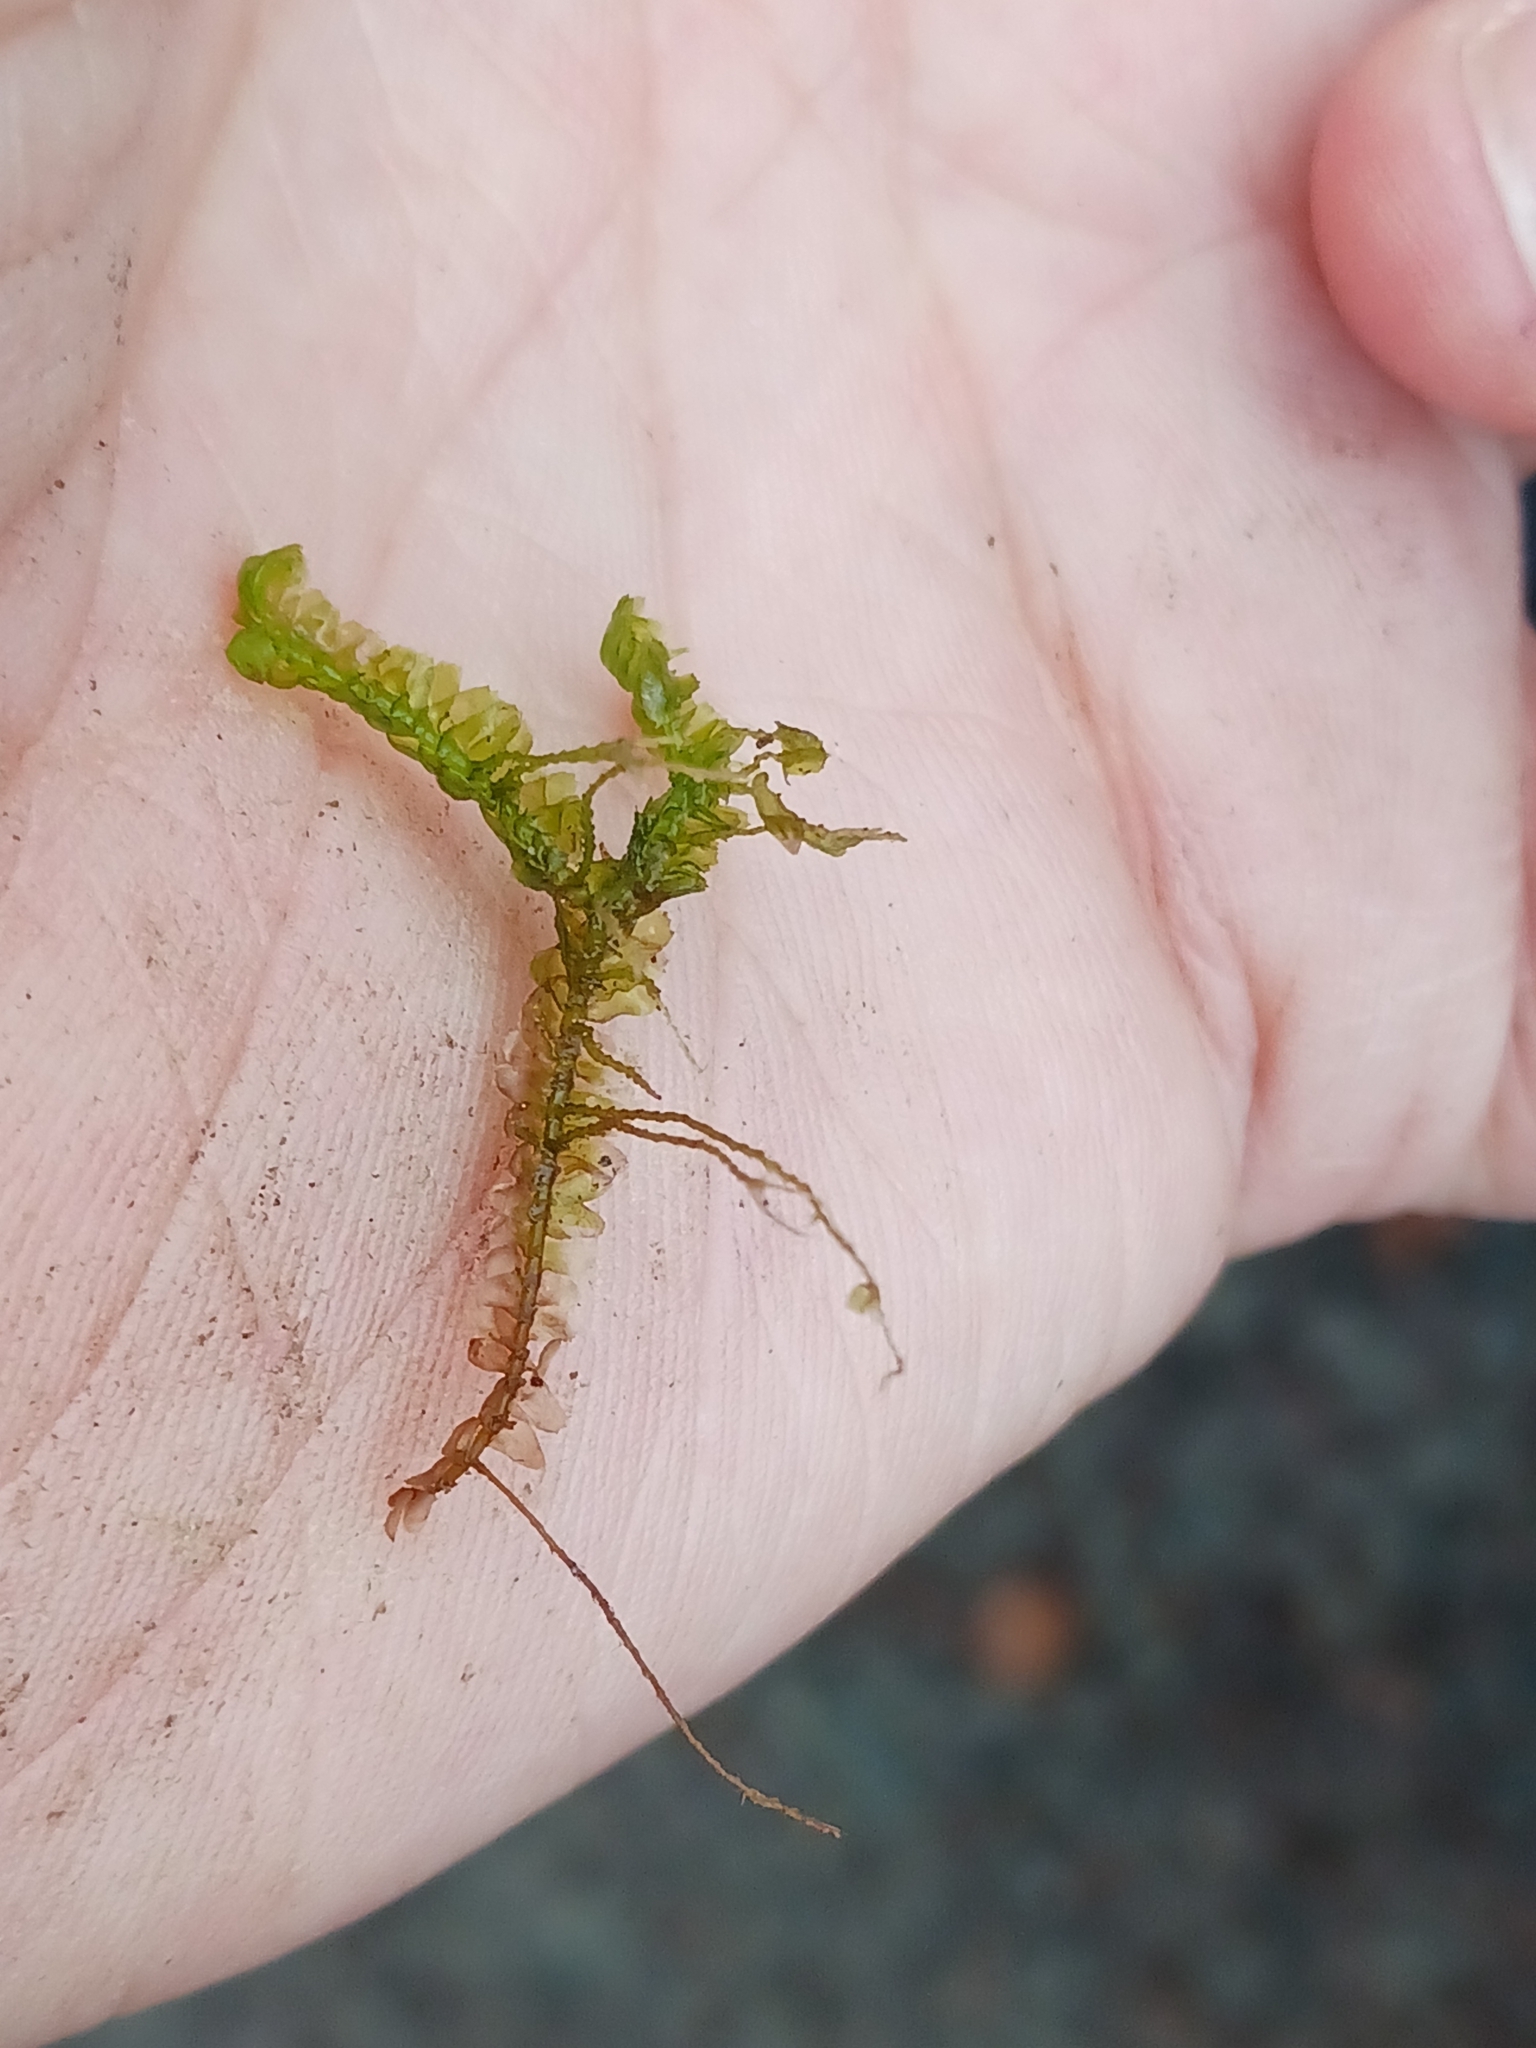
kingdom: Plantae
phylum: Marchantiophyta
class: Jungermanniopsida
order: Jungermanniales
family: Lepidoziaceae
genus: Bazzania
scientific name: Bazzania trilobata
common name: Three-lobed whipwort
